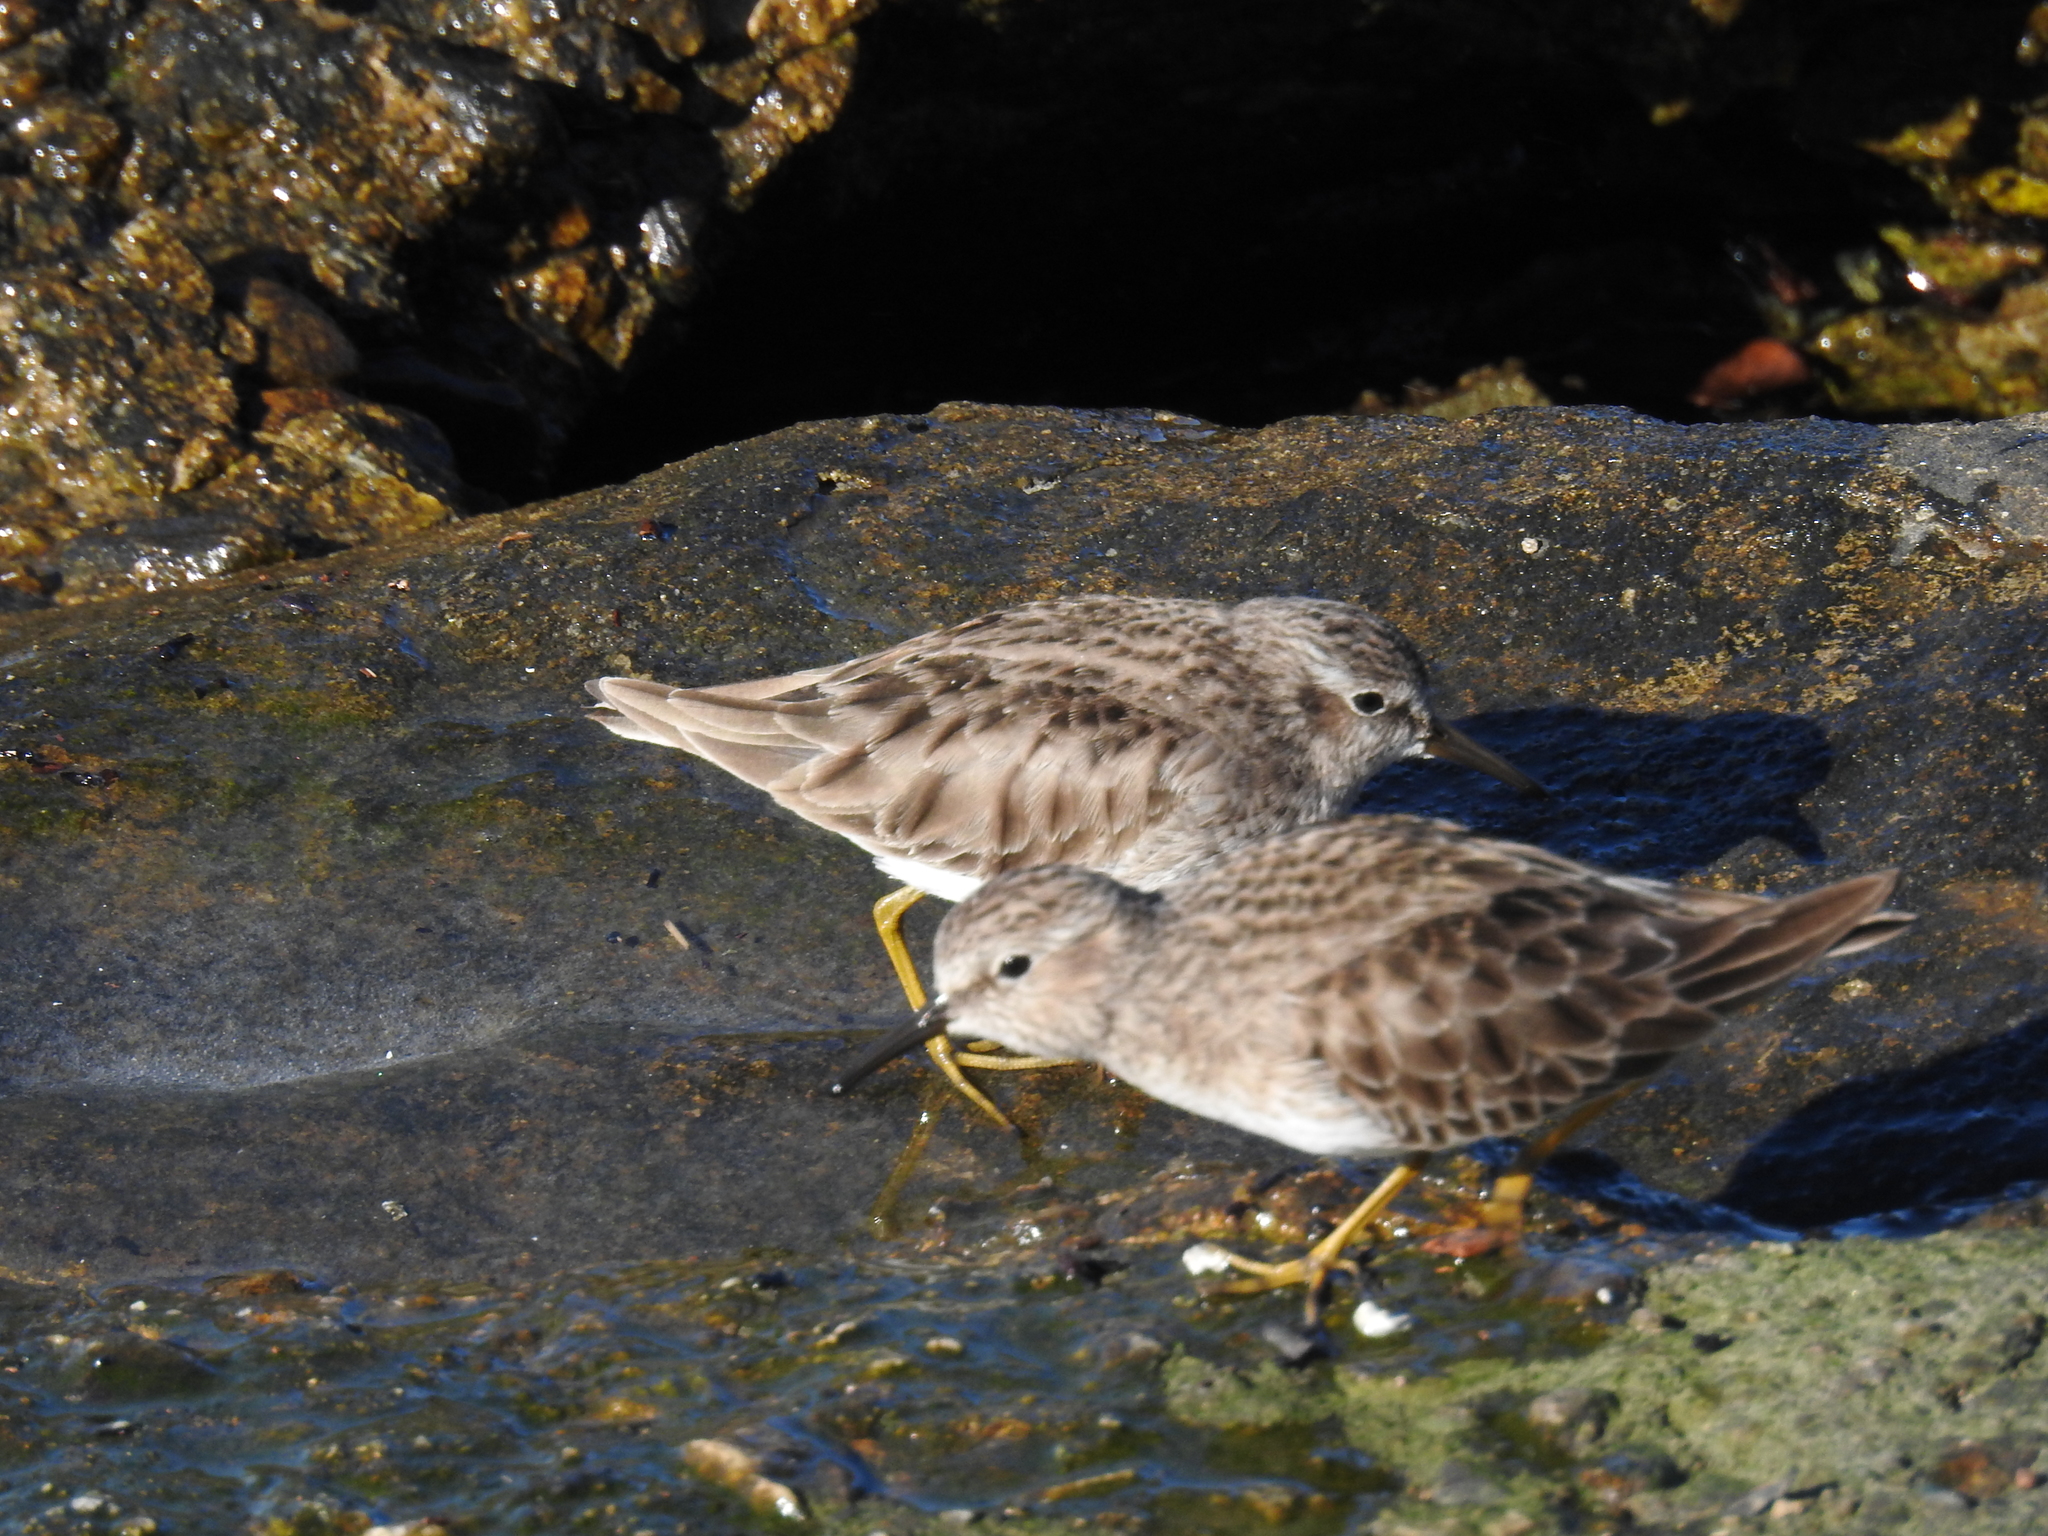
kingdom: Animalia
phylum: Chordata
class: Aves
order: Charadriiformes
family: Scolopacidae
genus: Calidris
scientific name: Calidris minutilla
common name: Least sandpiper
